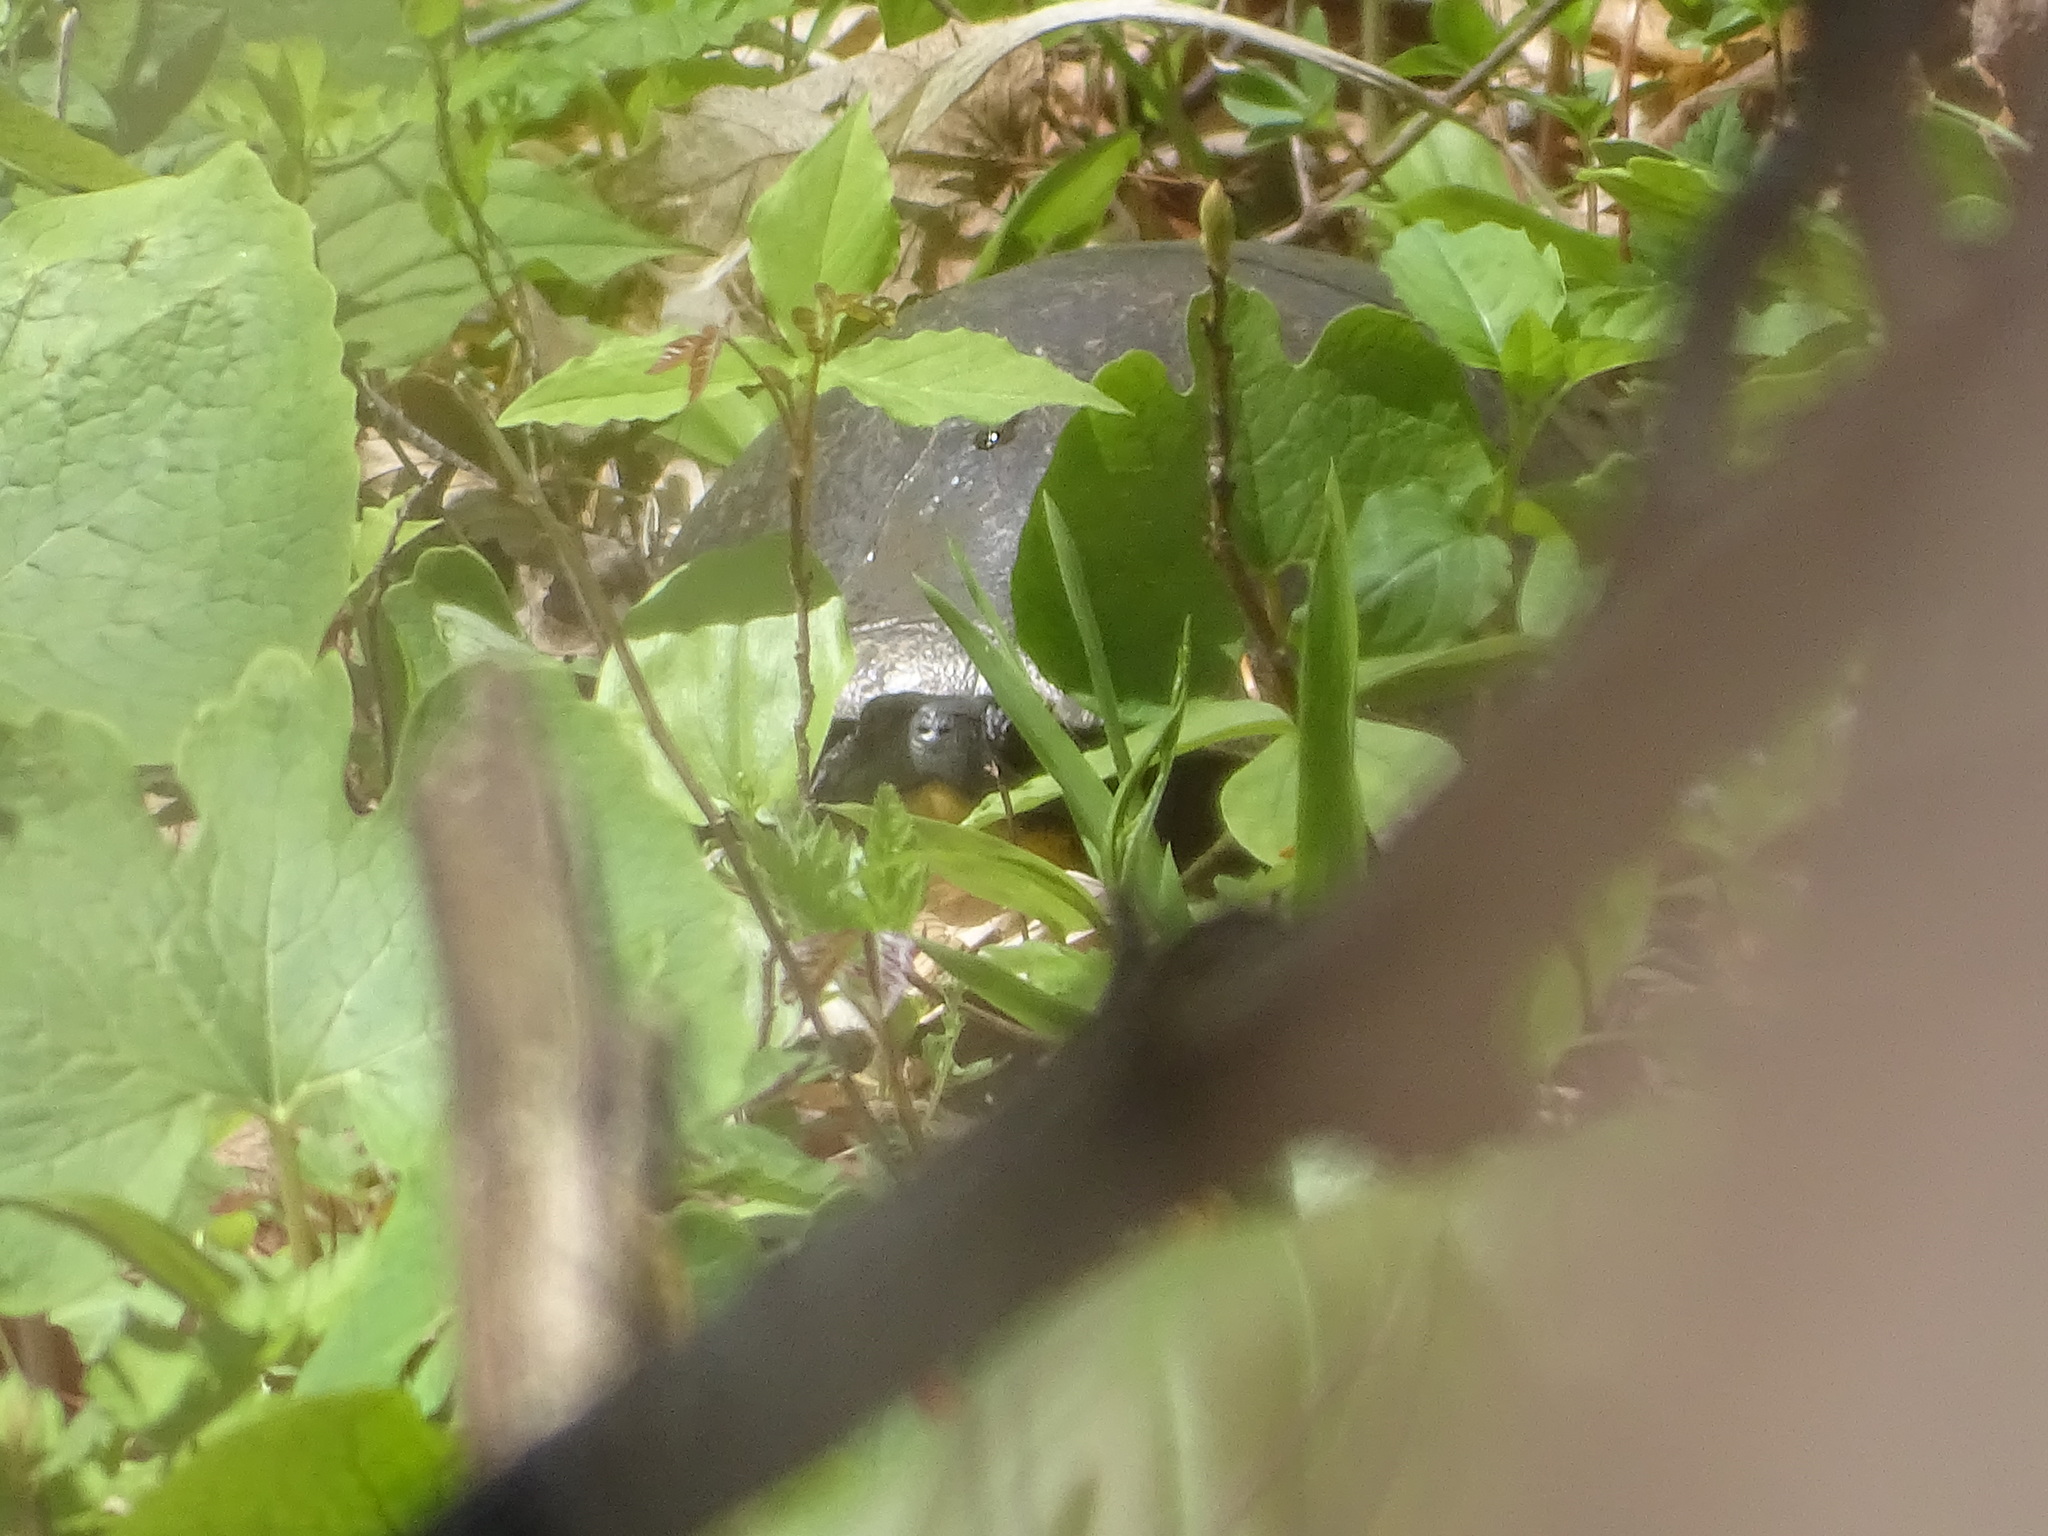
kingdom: Animalia
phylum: Chordata
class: Testudines
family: Emydidae
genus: Emys
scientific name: Emys blandingii
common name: Blanding's turtle
